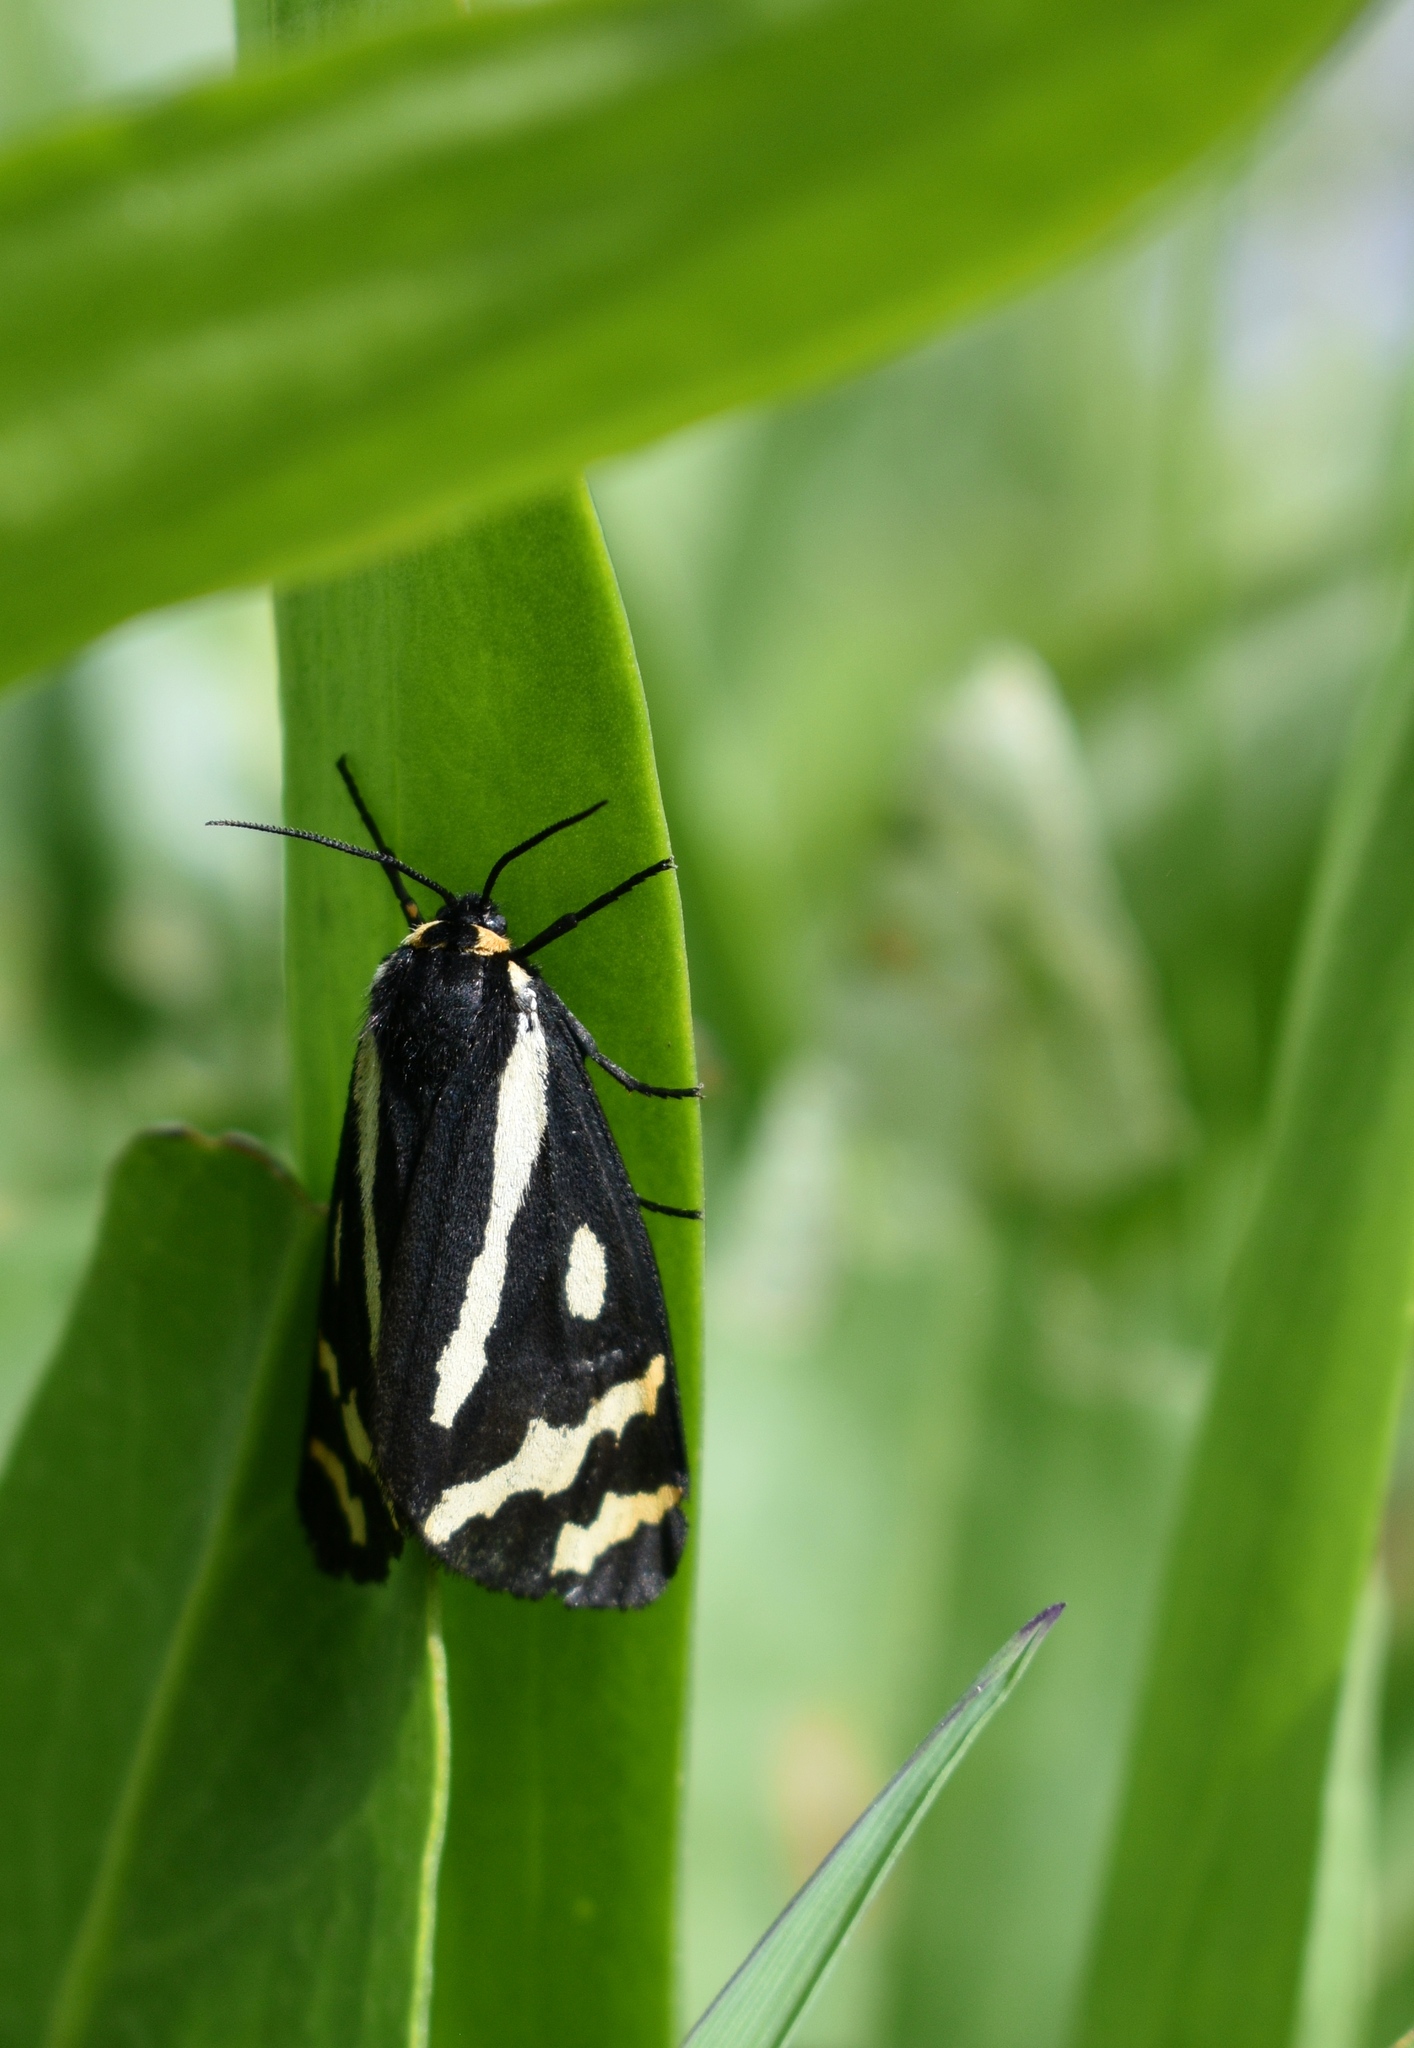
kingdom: Animalia
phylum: Arthropoda
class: Insecta
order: Lepidoptera
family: Erebidae
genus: Parasemia
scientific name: Parasemia plantaginis
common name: Wood tiger
